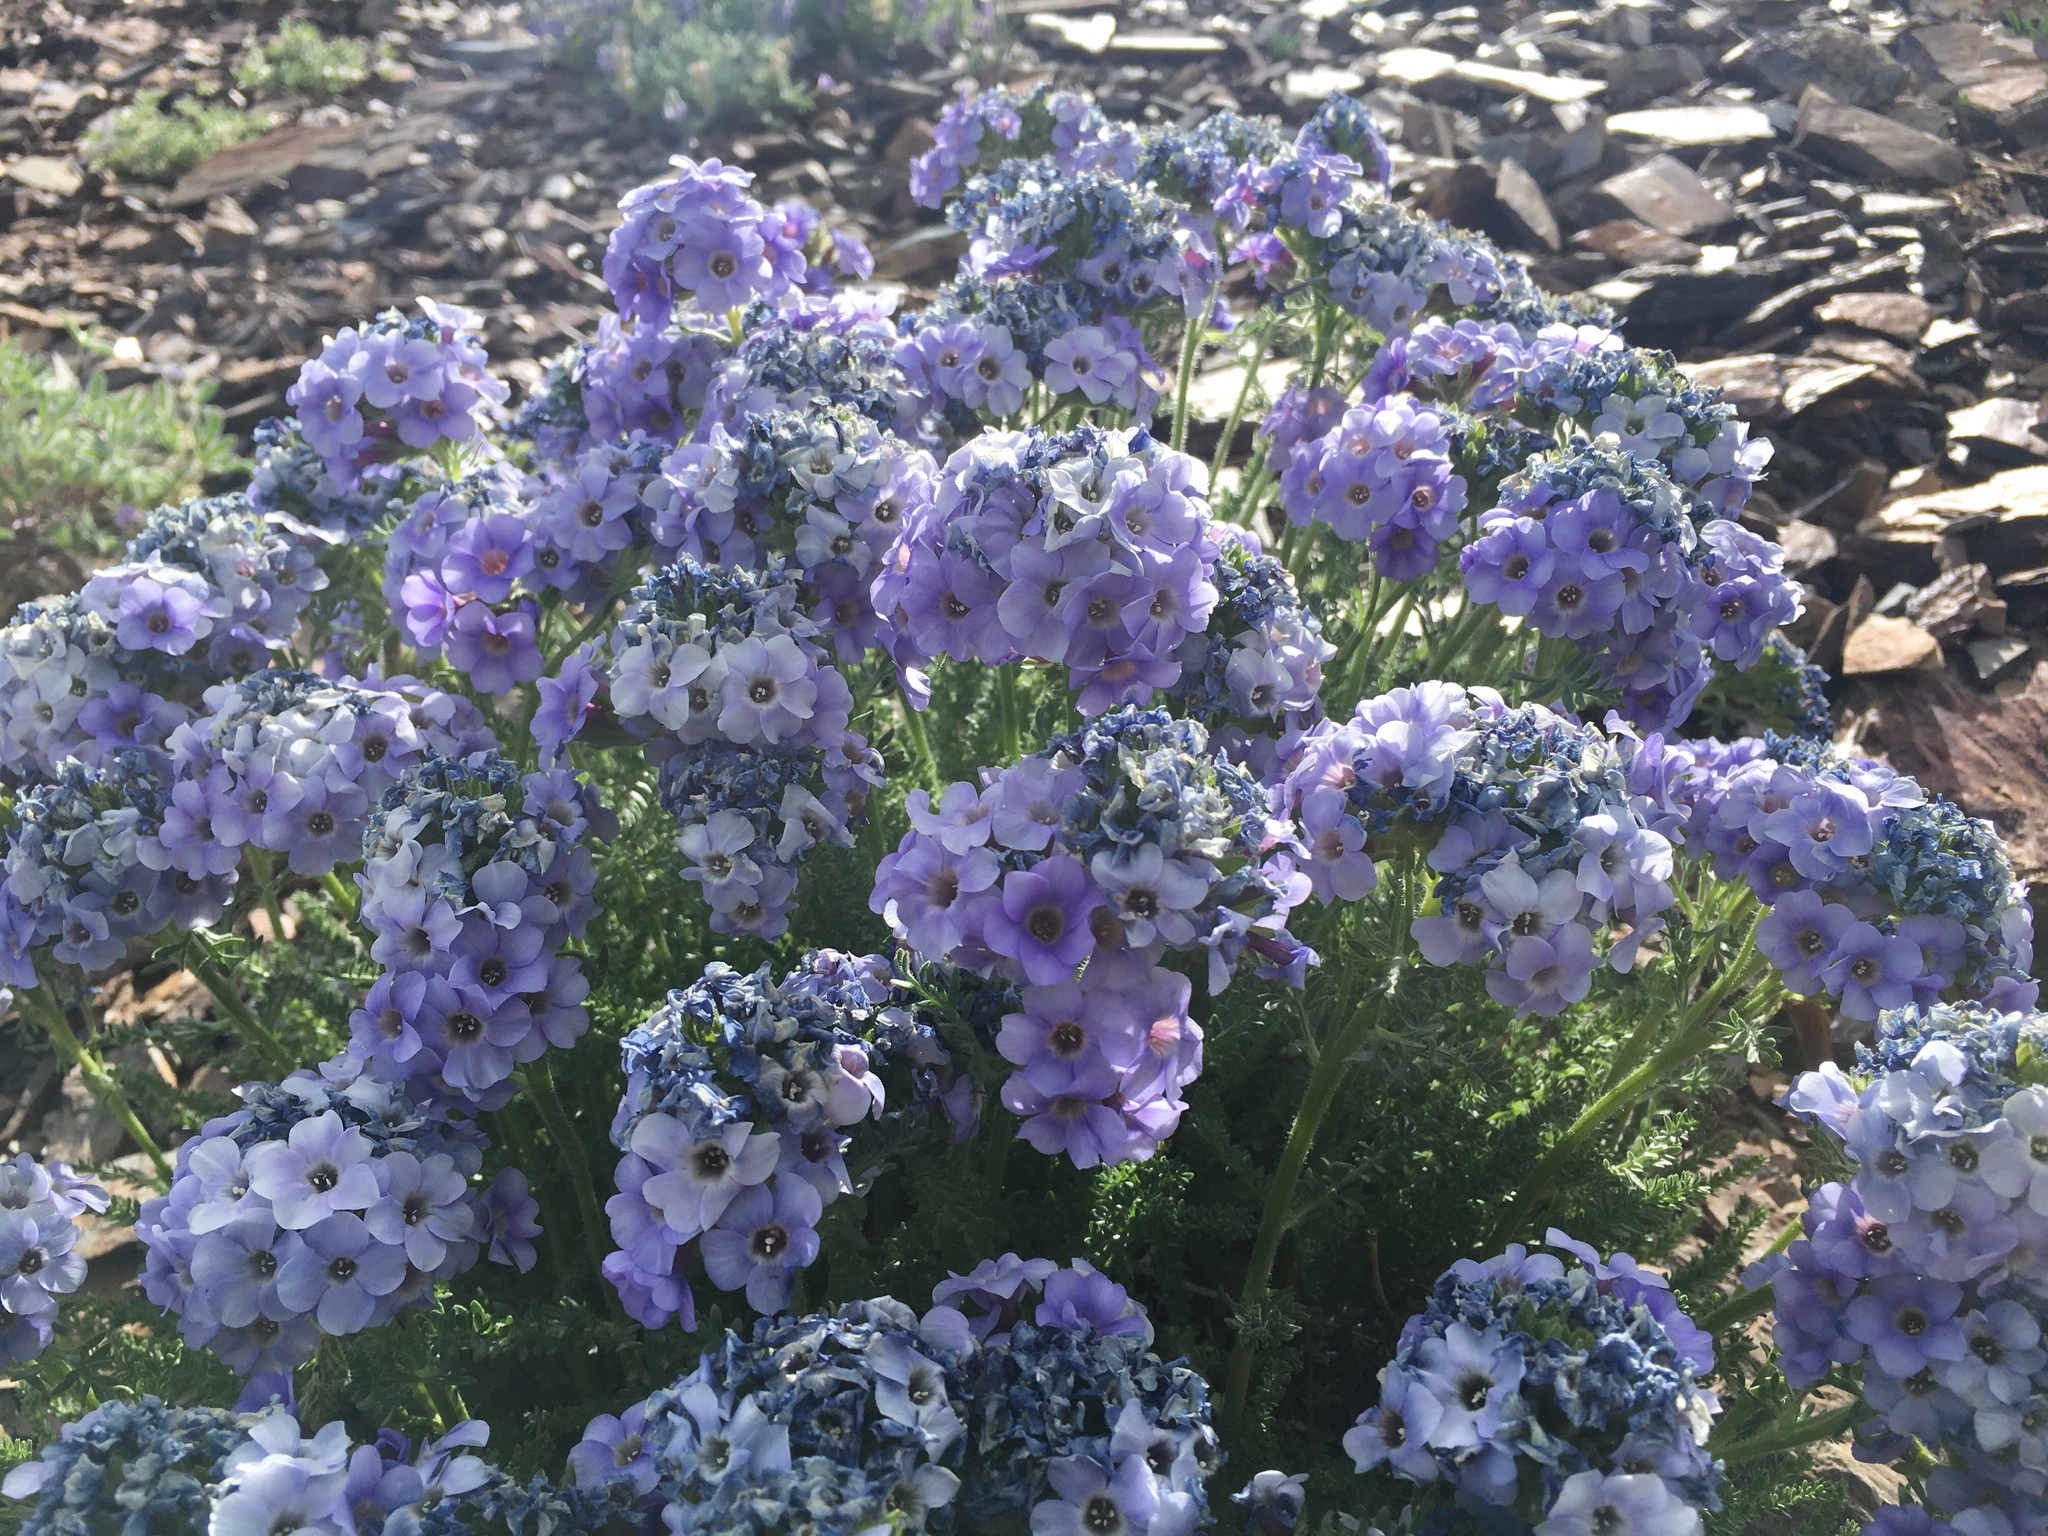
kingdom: Plantae
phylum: Tracheophyta
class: Magnoliopsida
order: Ericales
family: Polemoniaceae
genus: Polemonium
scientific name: Polemonium eximium
